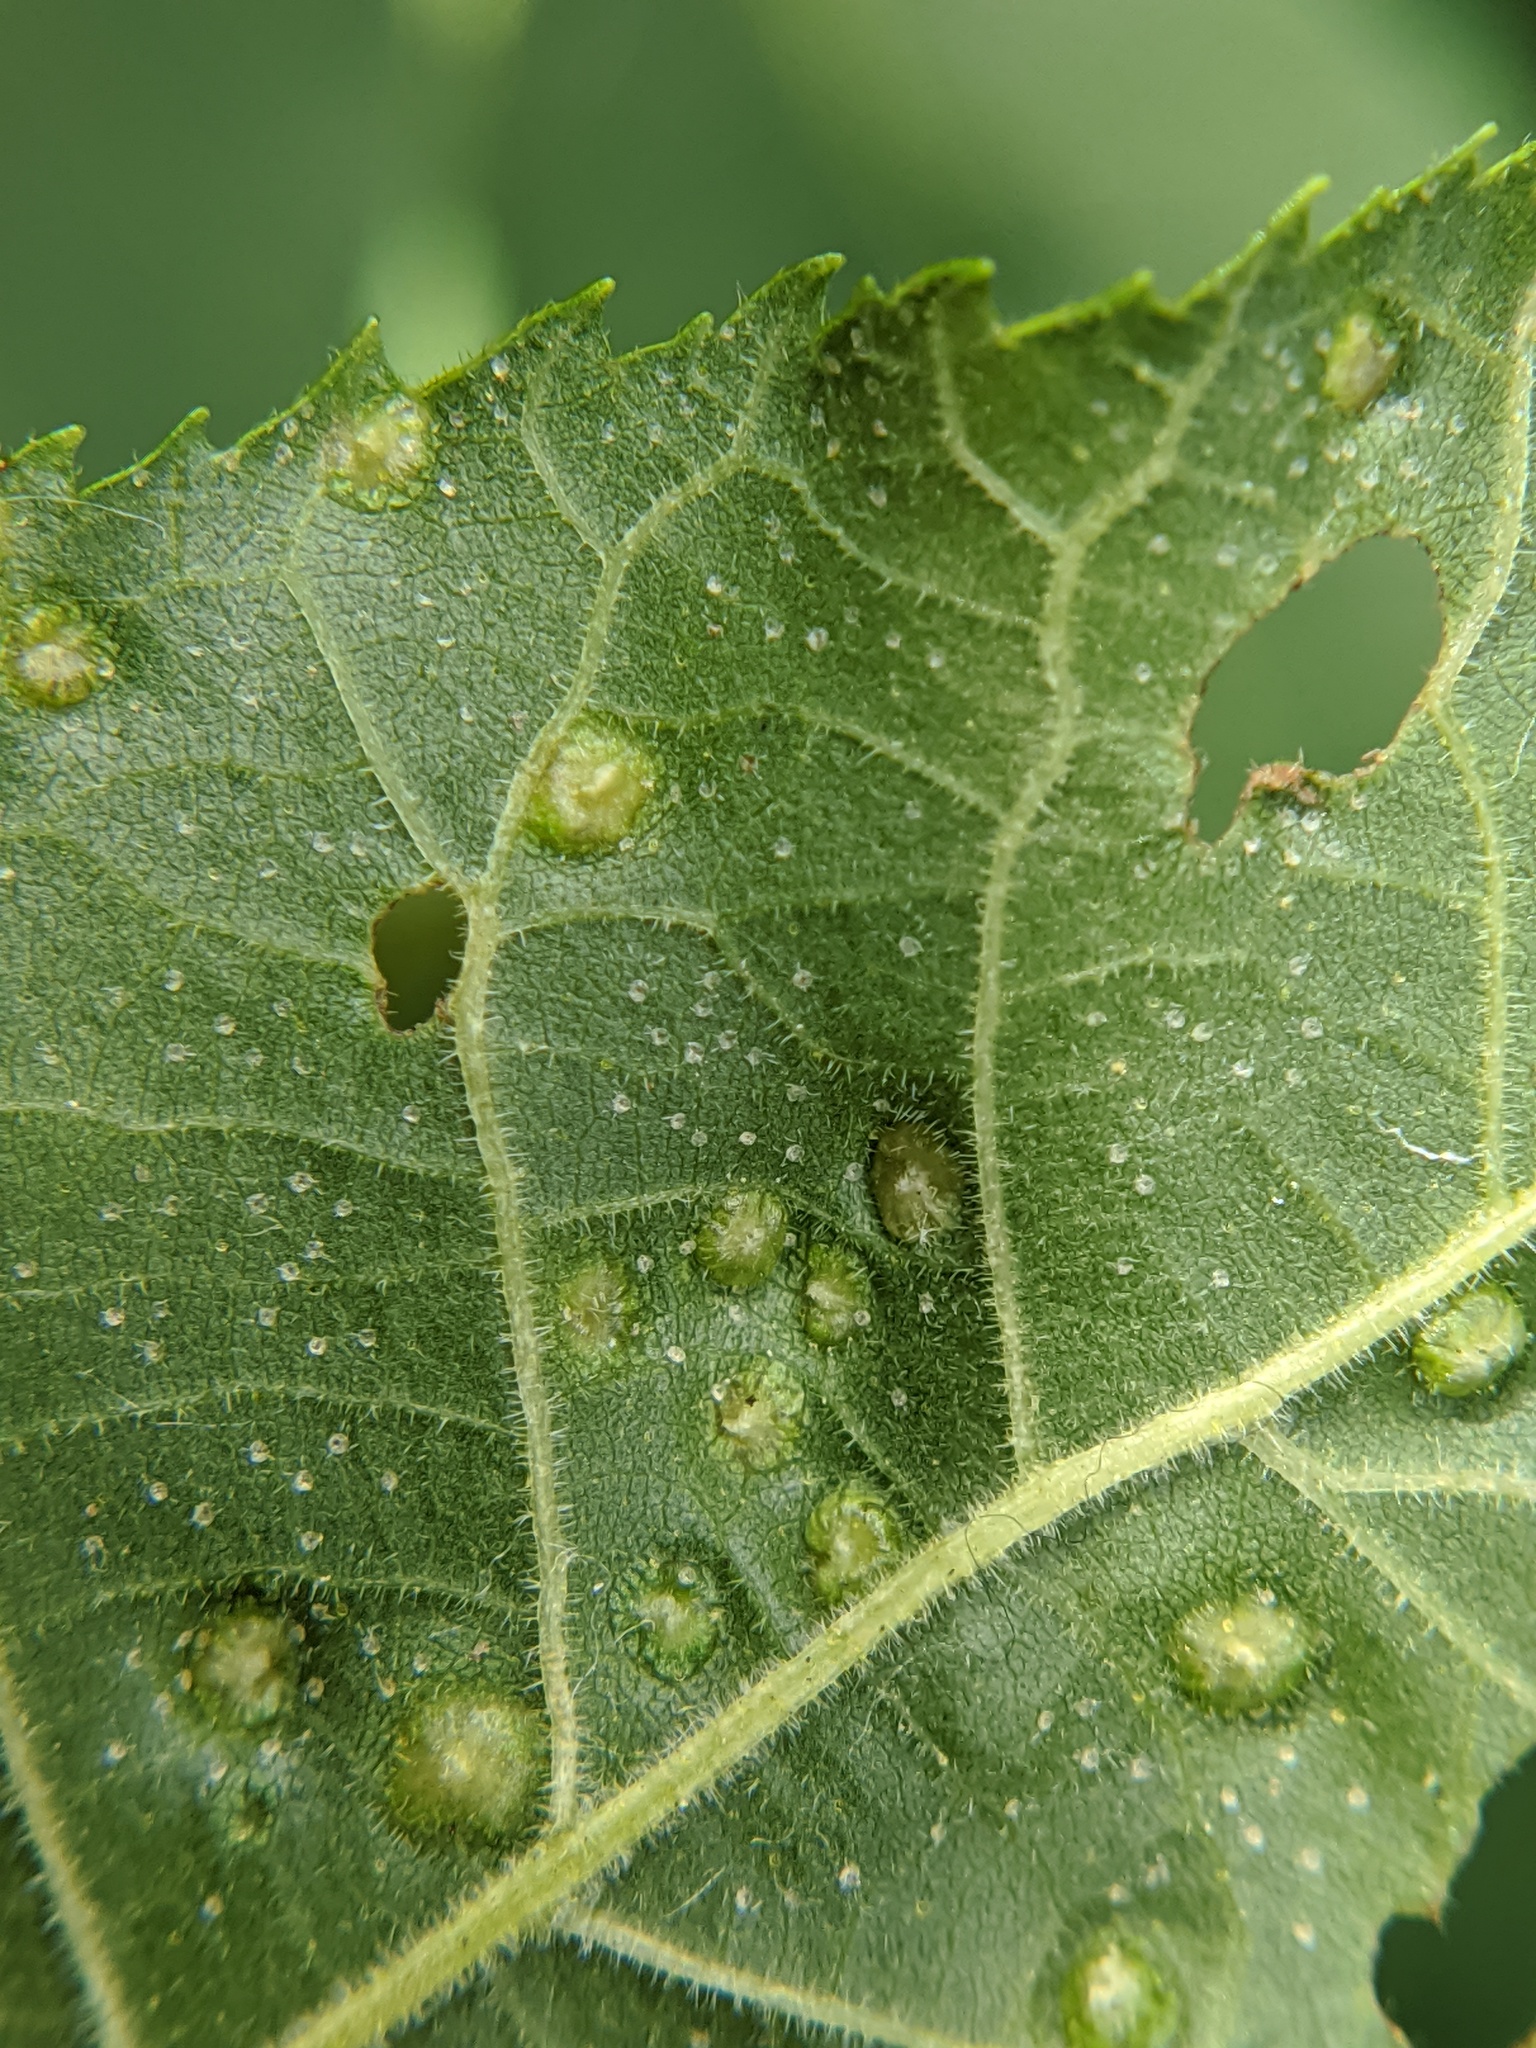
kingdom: Animalia
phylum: Arthropoda
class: Insecta
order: Hemiptera
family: Phylloxeridae
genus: Phylloxera
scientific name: Phylloxera caryae-semen
